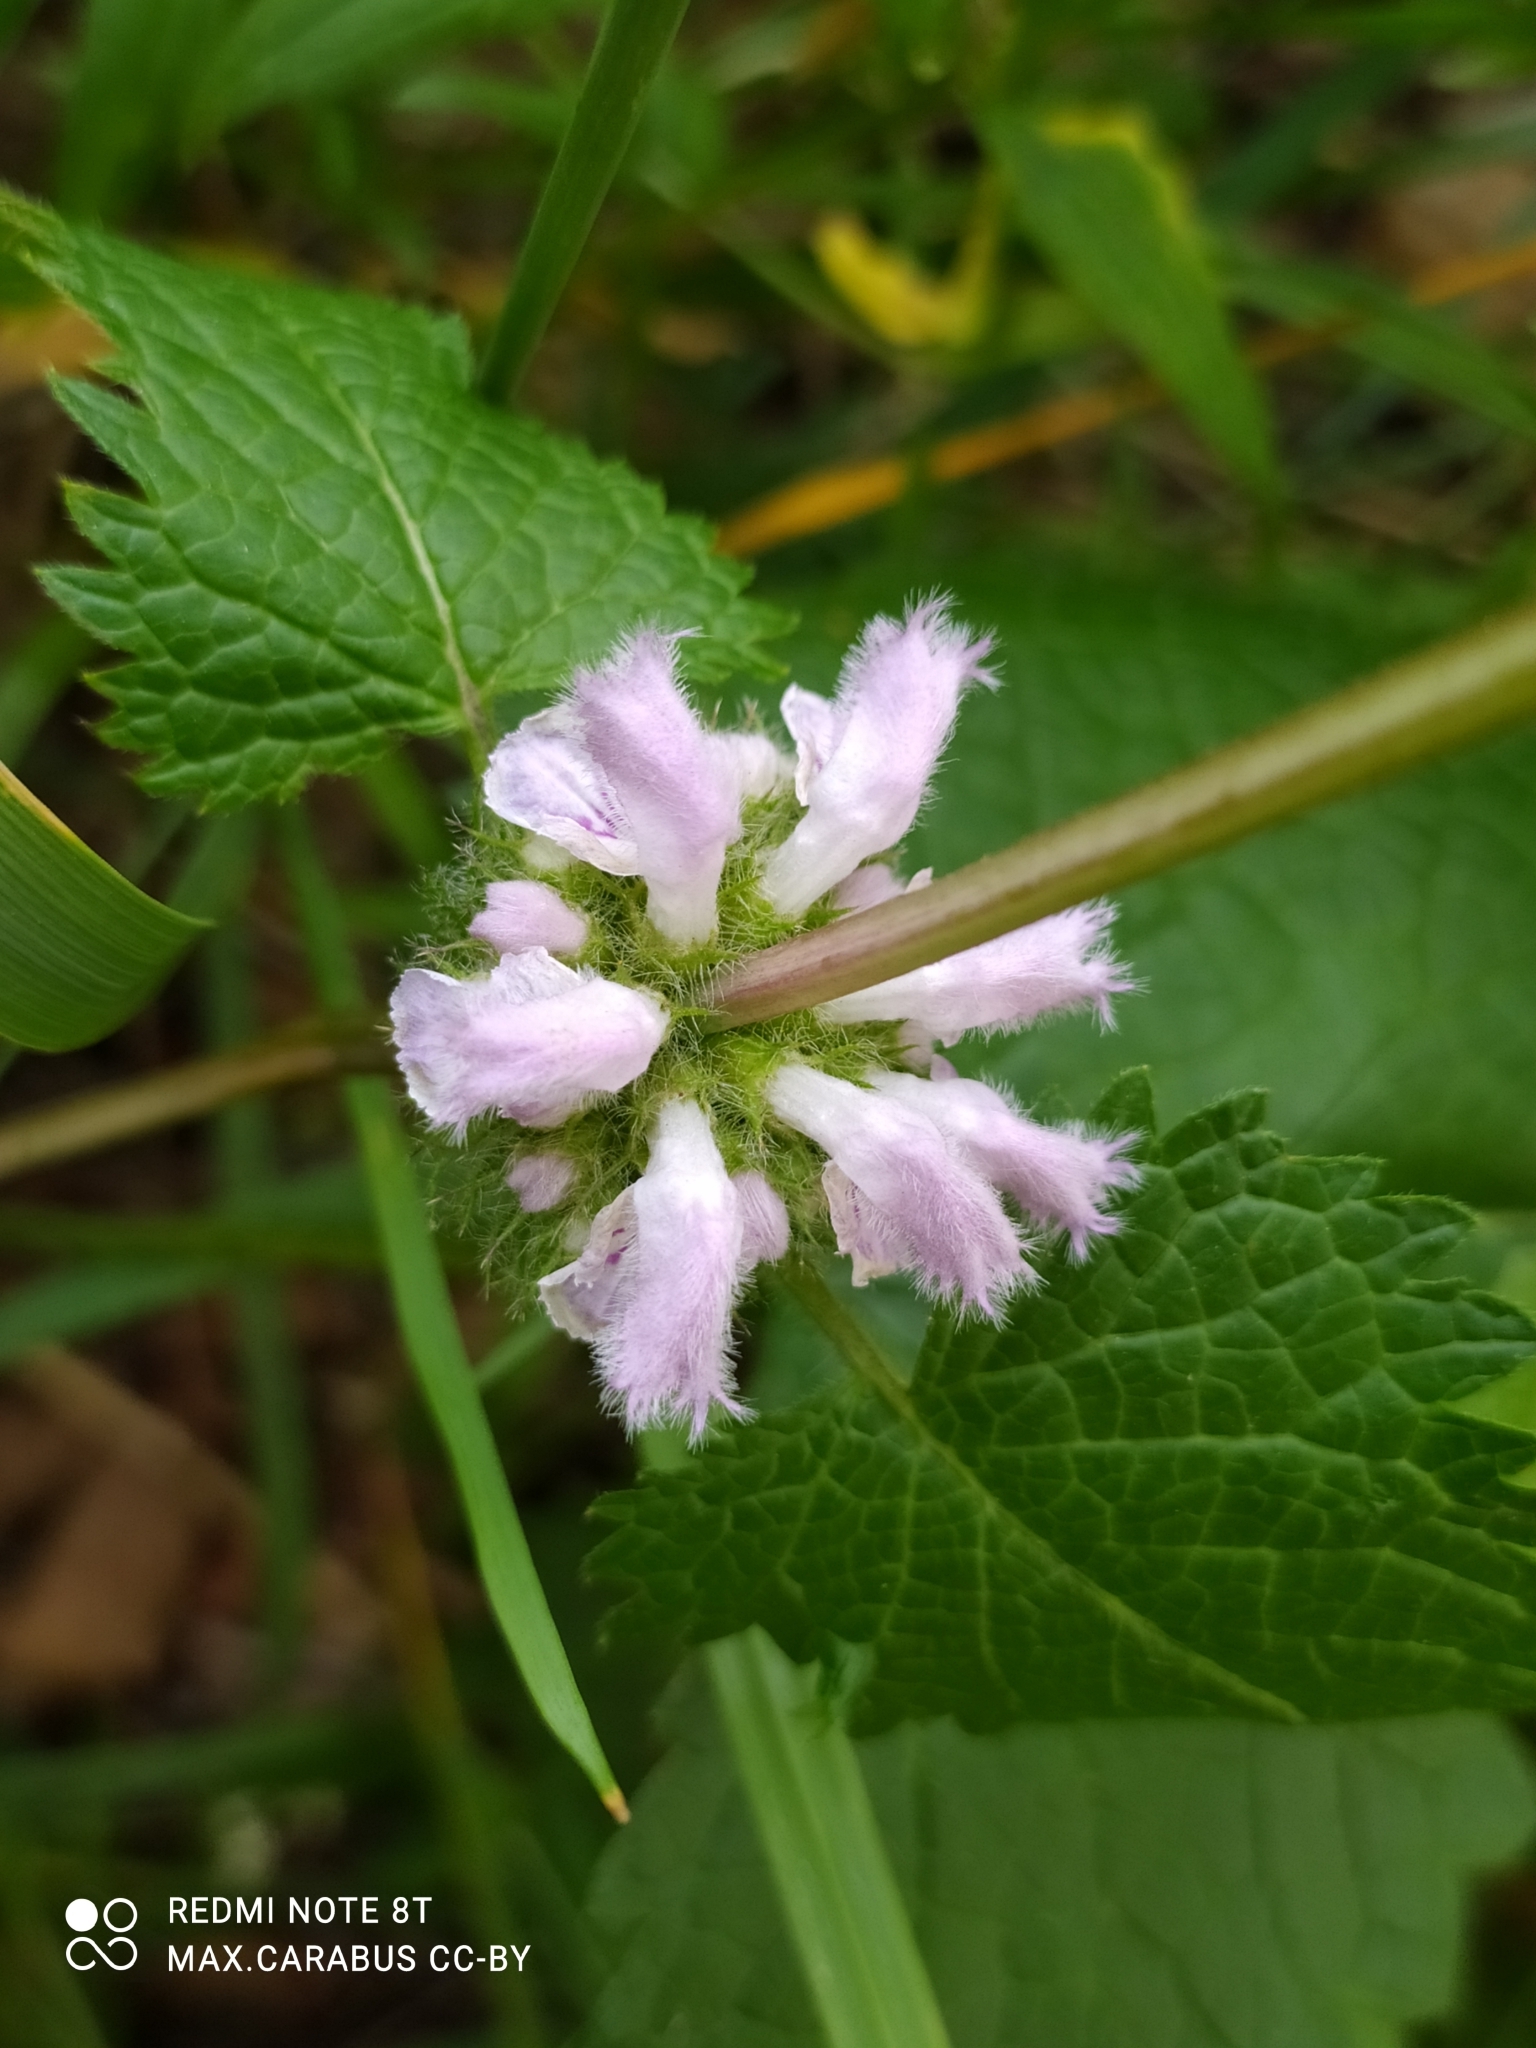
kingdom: Plantae
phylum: Tracheophyta
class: Magnoliopsida
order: Lamiales
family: Lamiaceae
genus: Phlomoides
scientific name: Phlomoides tuberosa
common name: Tuberous jerusalem sage
